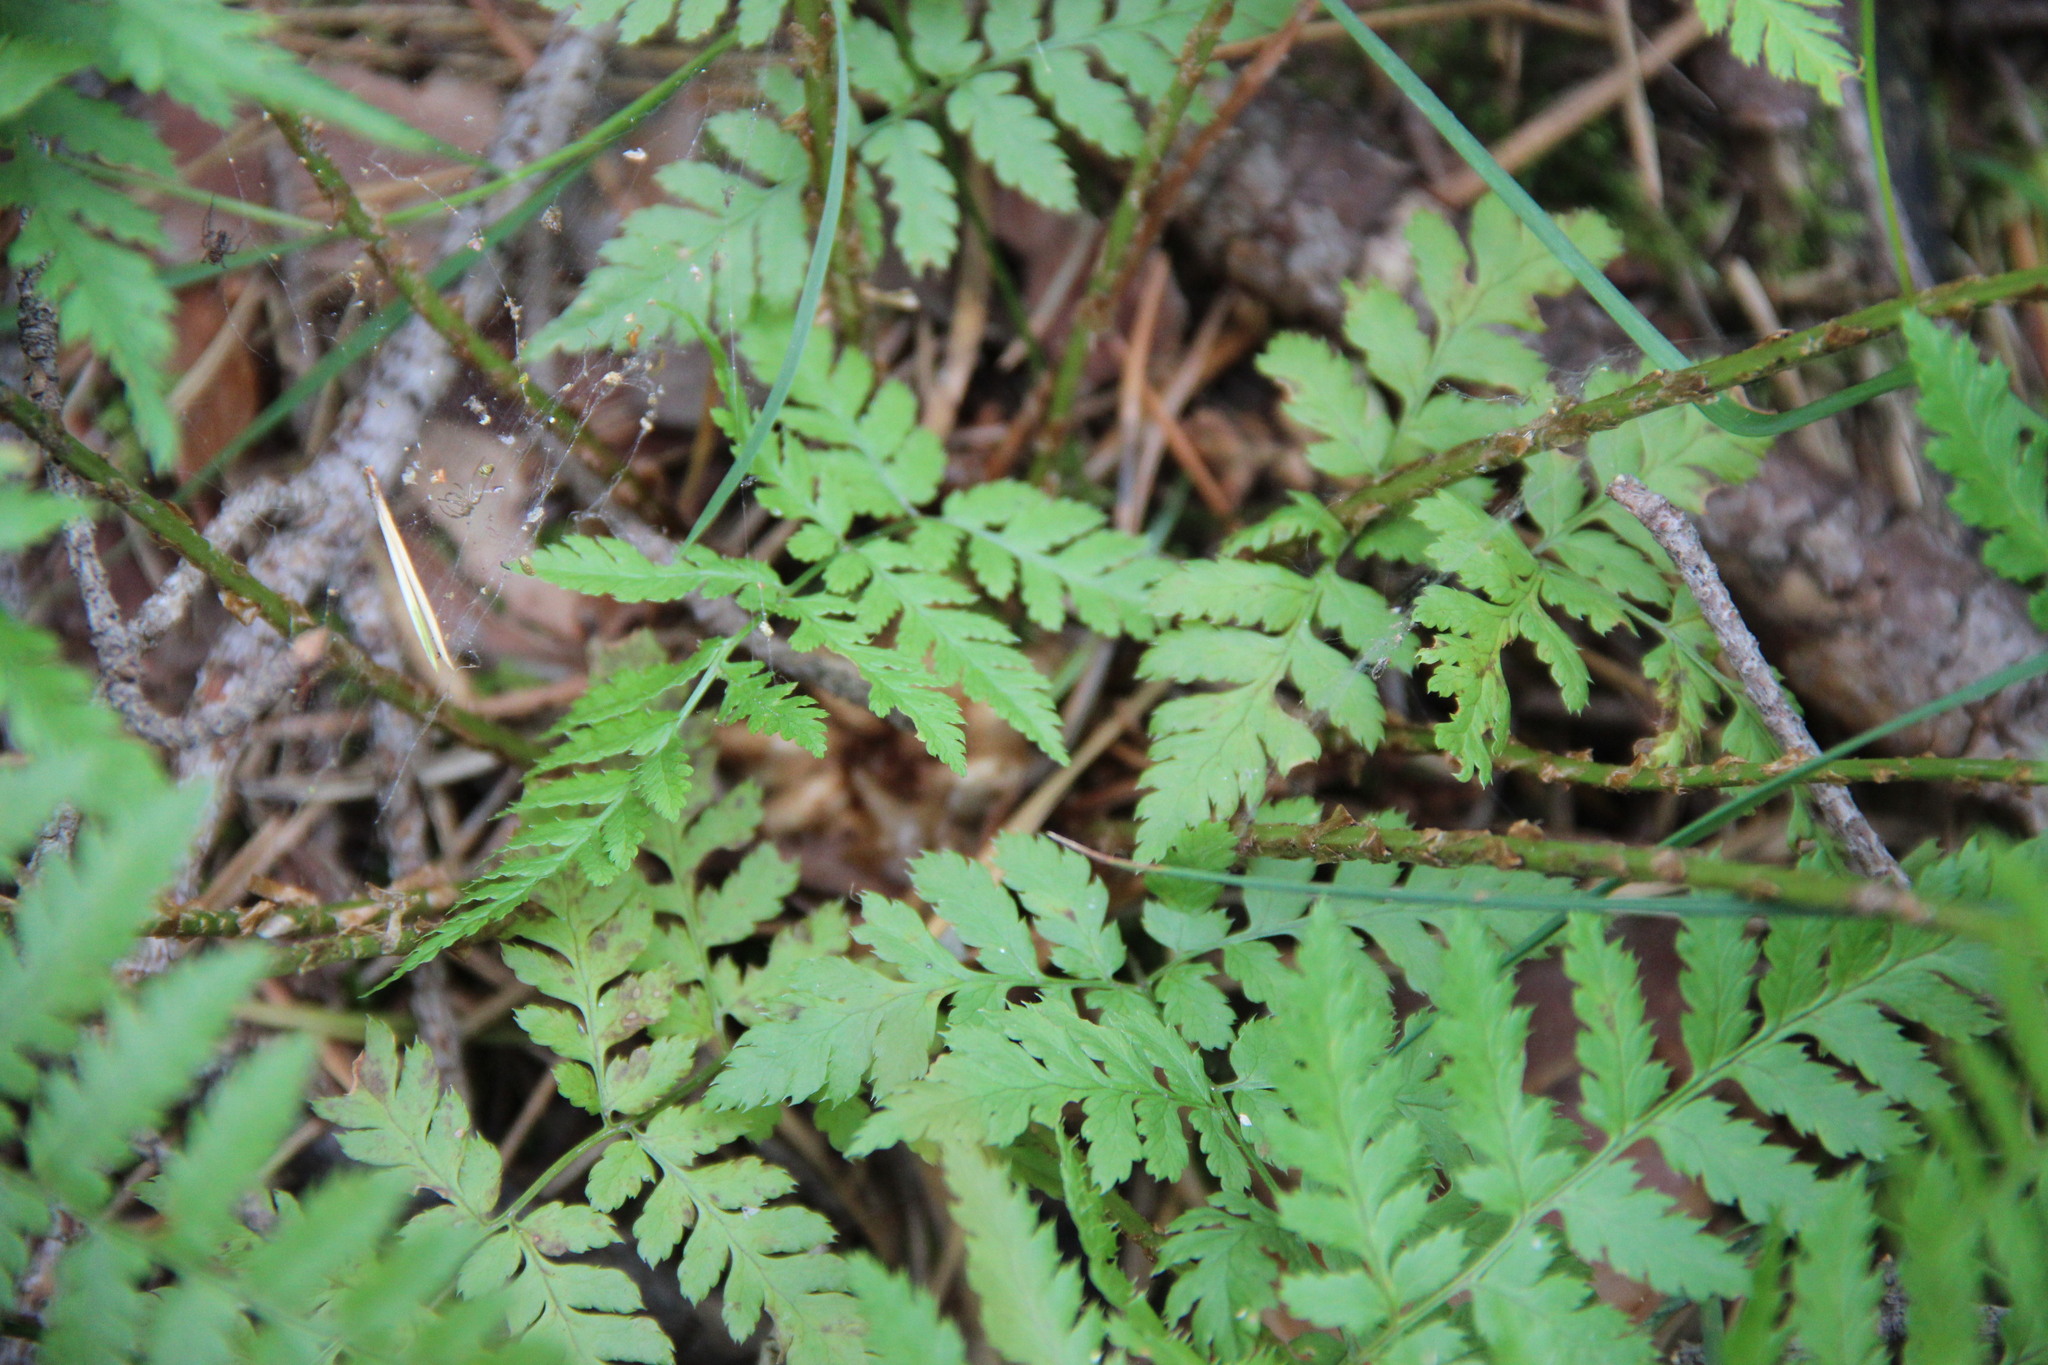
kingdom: Plantae
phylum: Tracheophyta
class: Polypodiopsida
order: Polypodiales
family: Dryopteridaceae
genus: Dryopteris
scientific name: Dryopteris carthusiana
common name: Narrow buckler-fern
